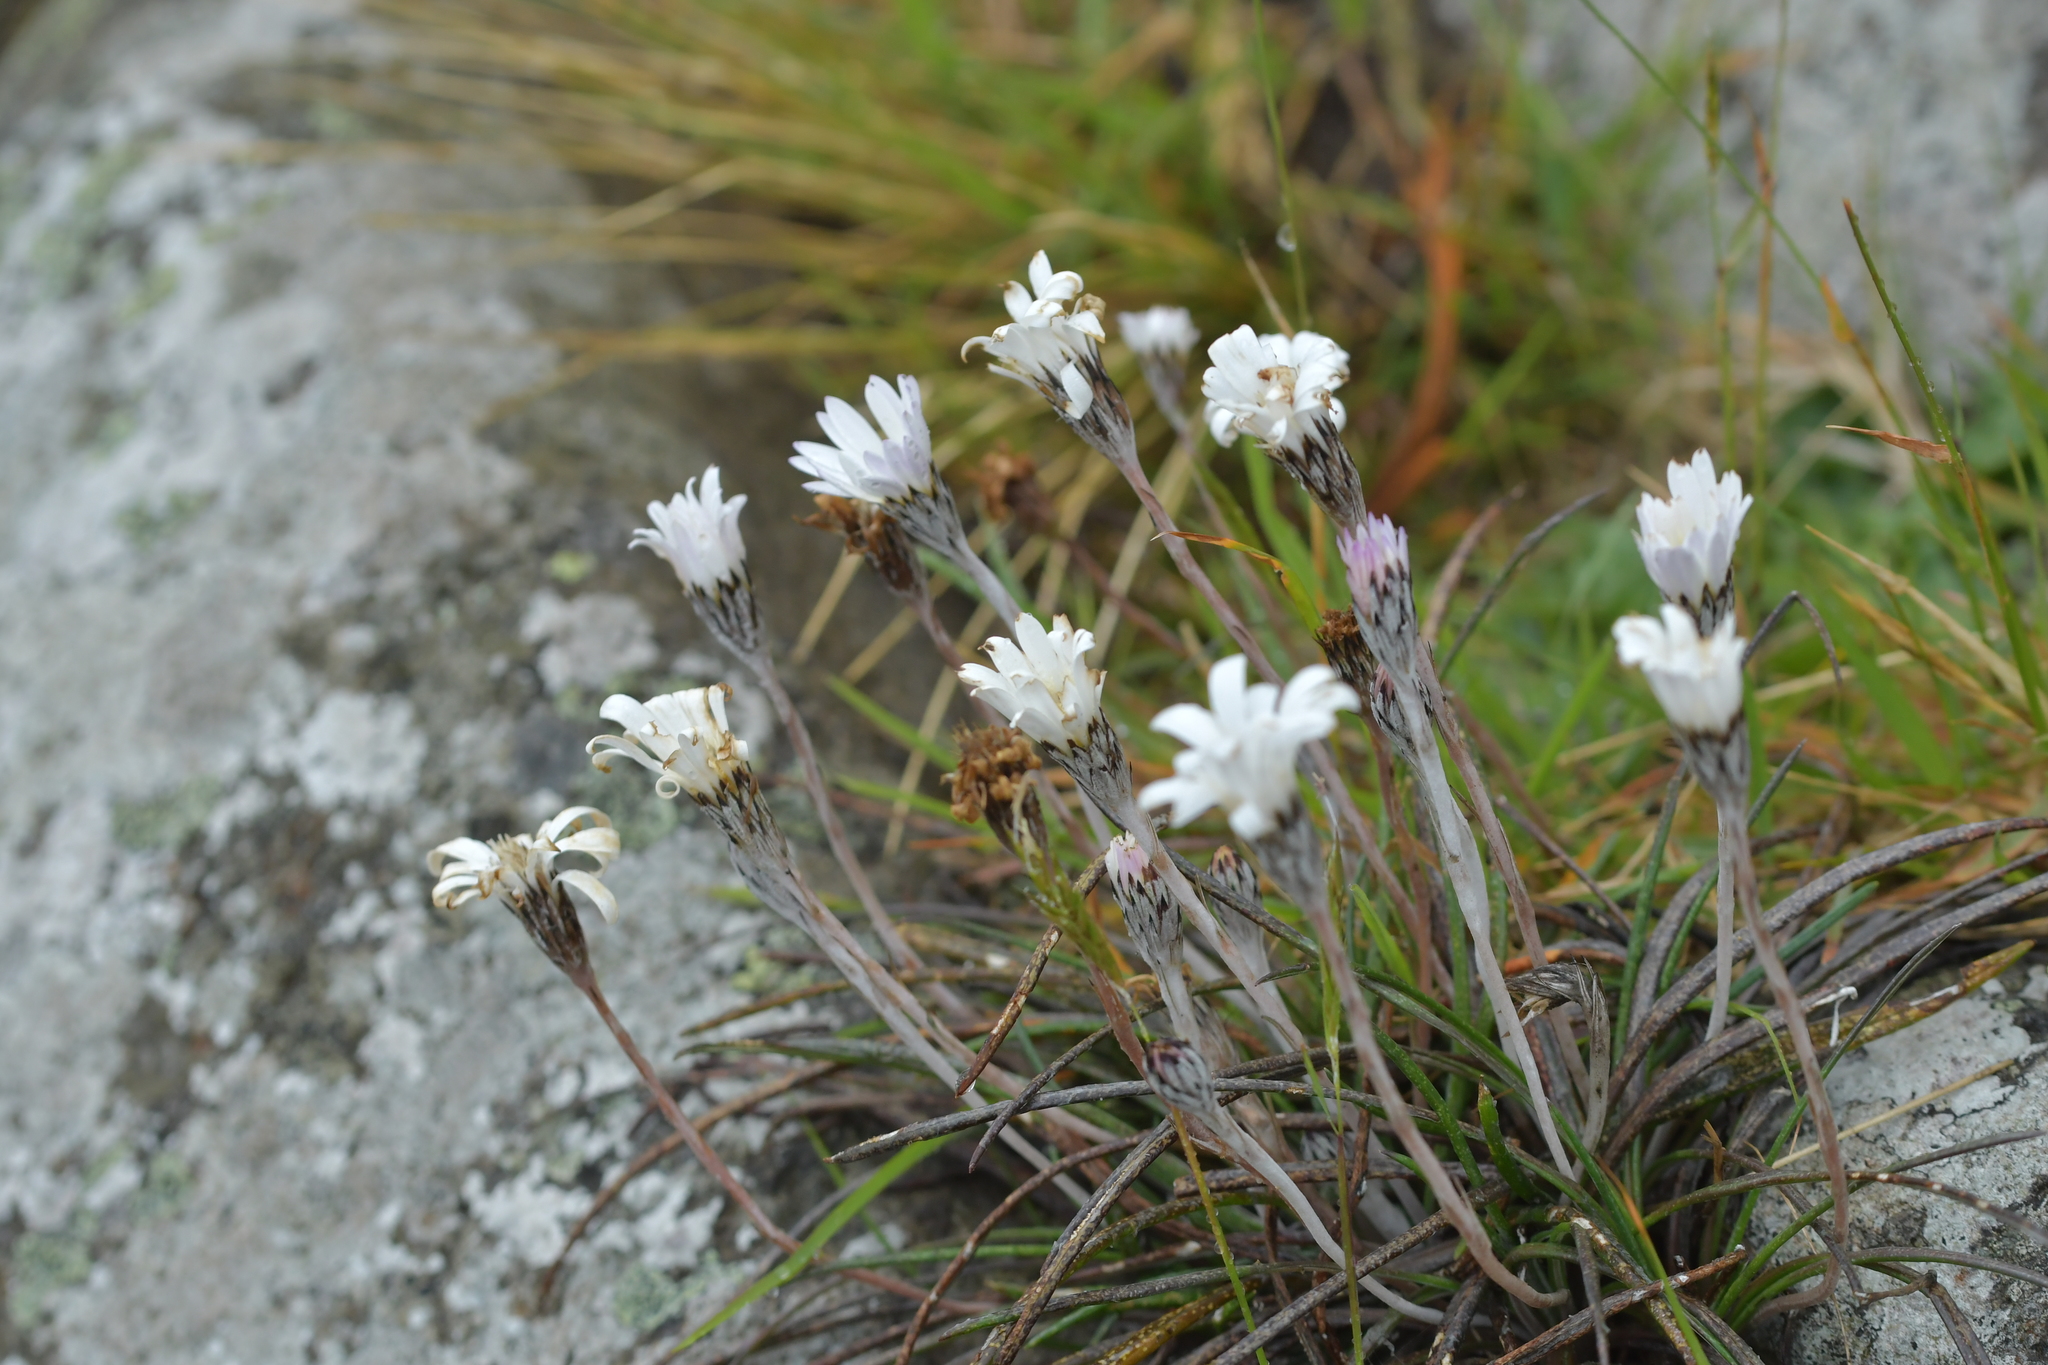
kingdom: Plantae
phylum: Tracheophyta
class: Magnoliopsida
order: Asterales
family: Asteraceae
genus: Celmisia
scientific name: Celmisia gracilenta
